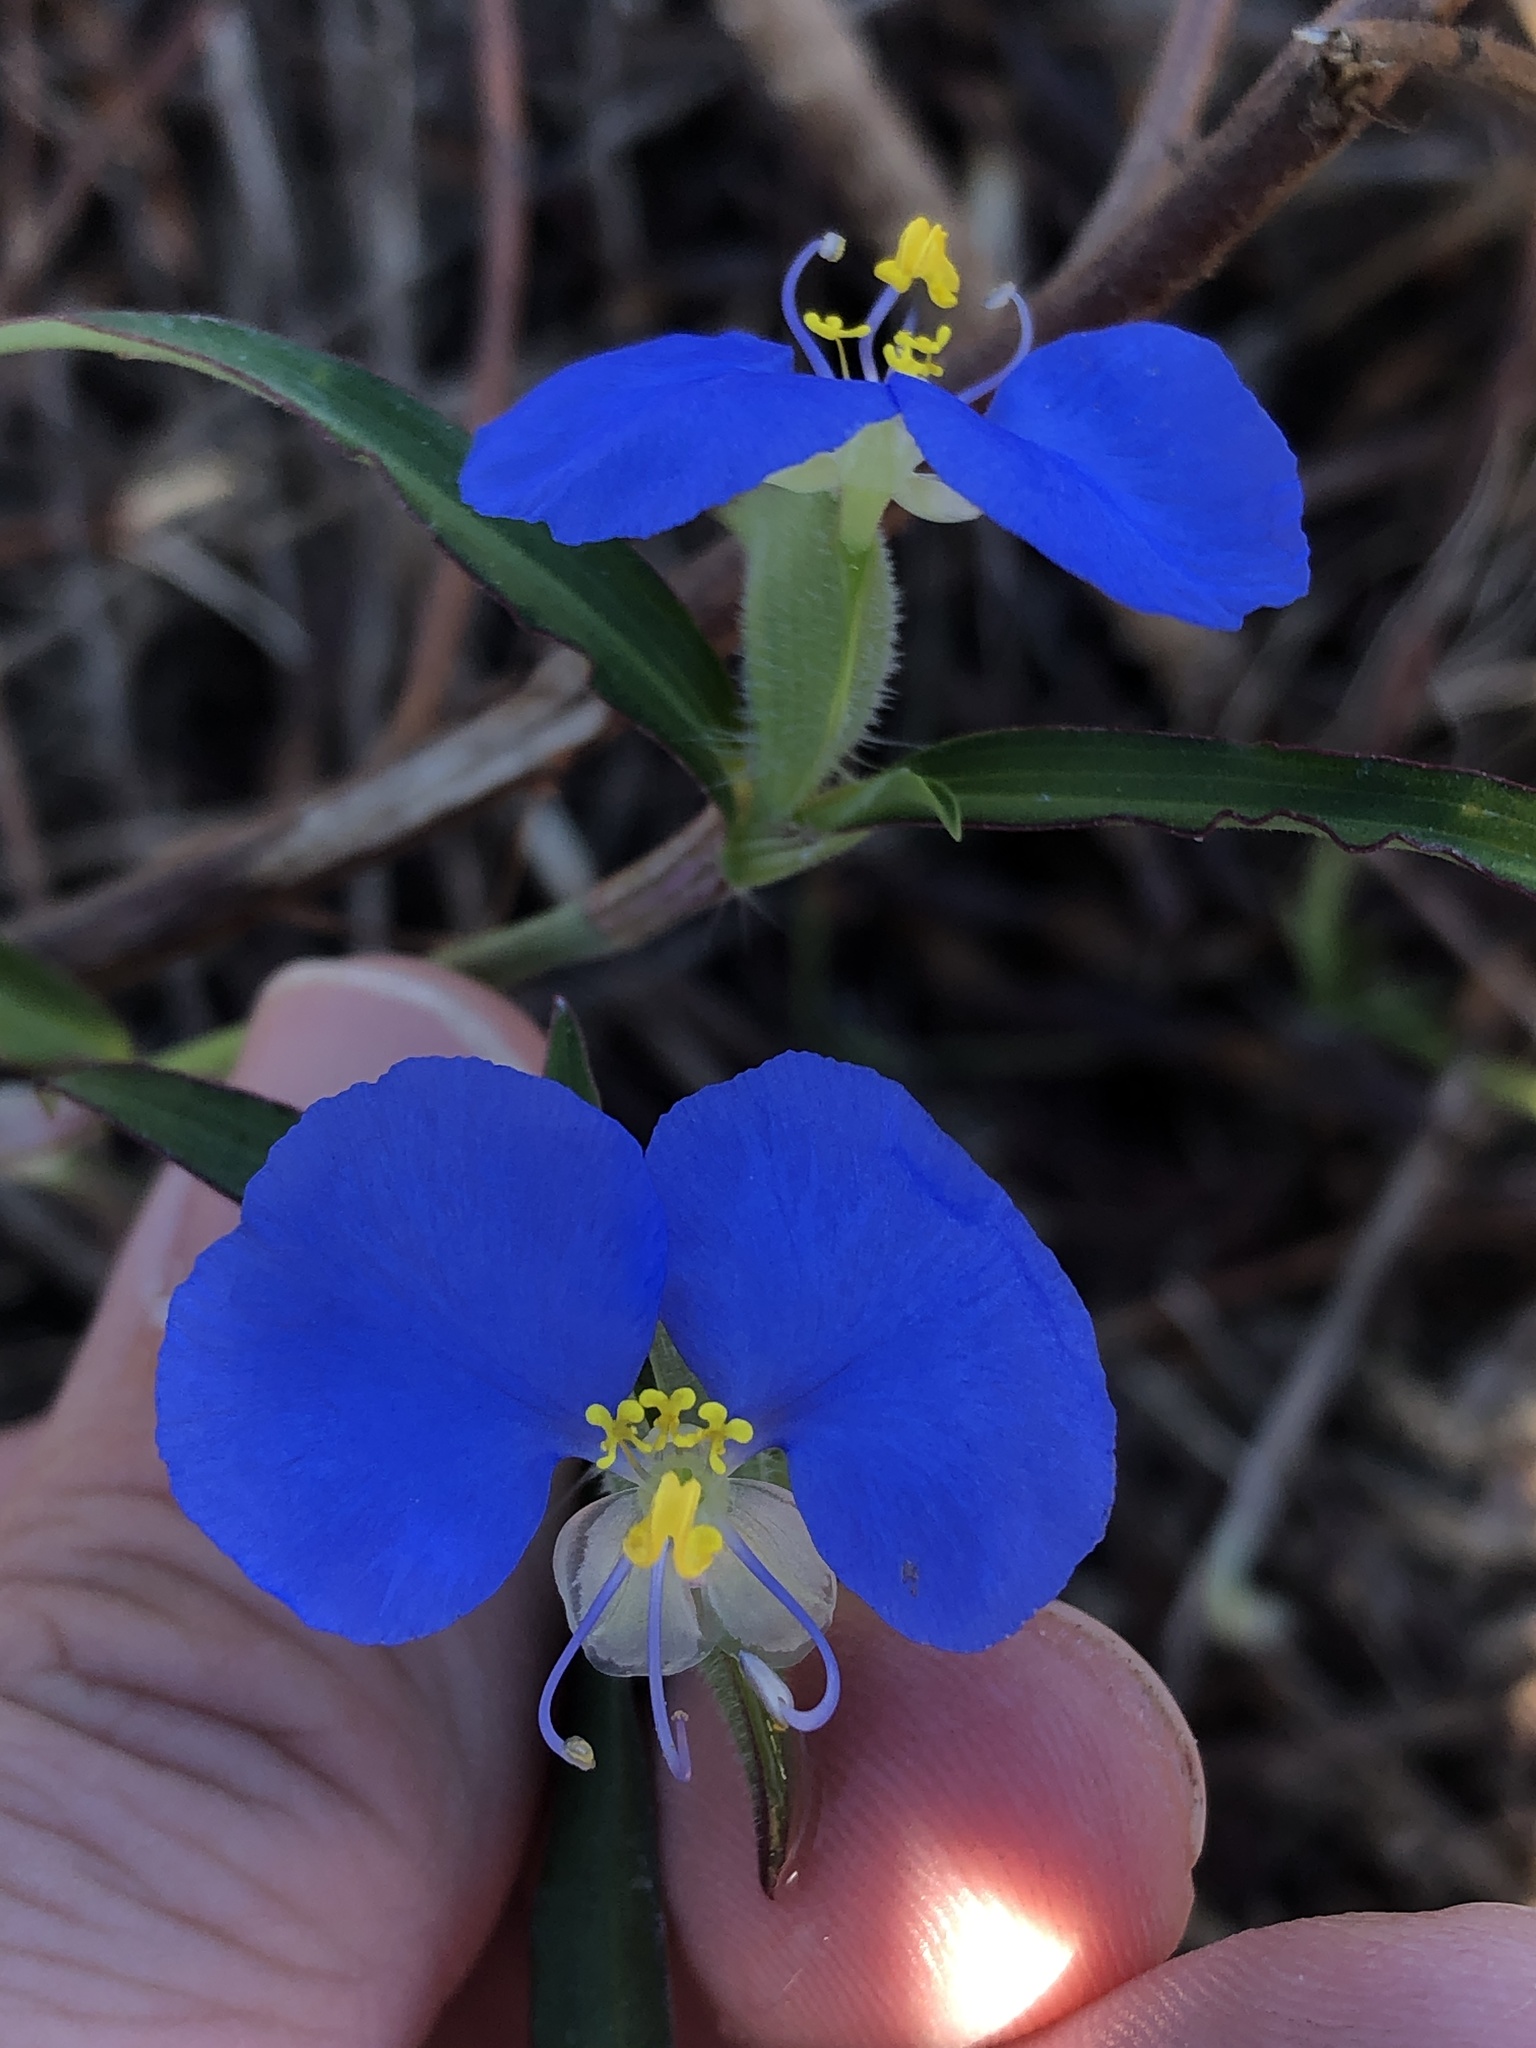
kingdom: Plantae
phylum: Tracheophyta
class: Liliopsida
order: Commelinales
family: Commelinaceae
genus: Commelina
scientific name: Commelina erecta
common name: Blousel blommetjie
